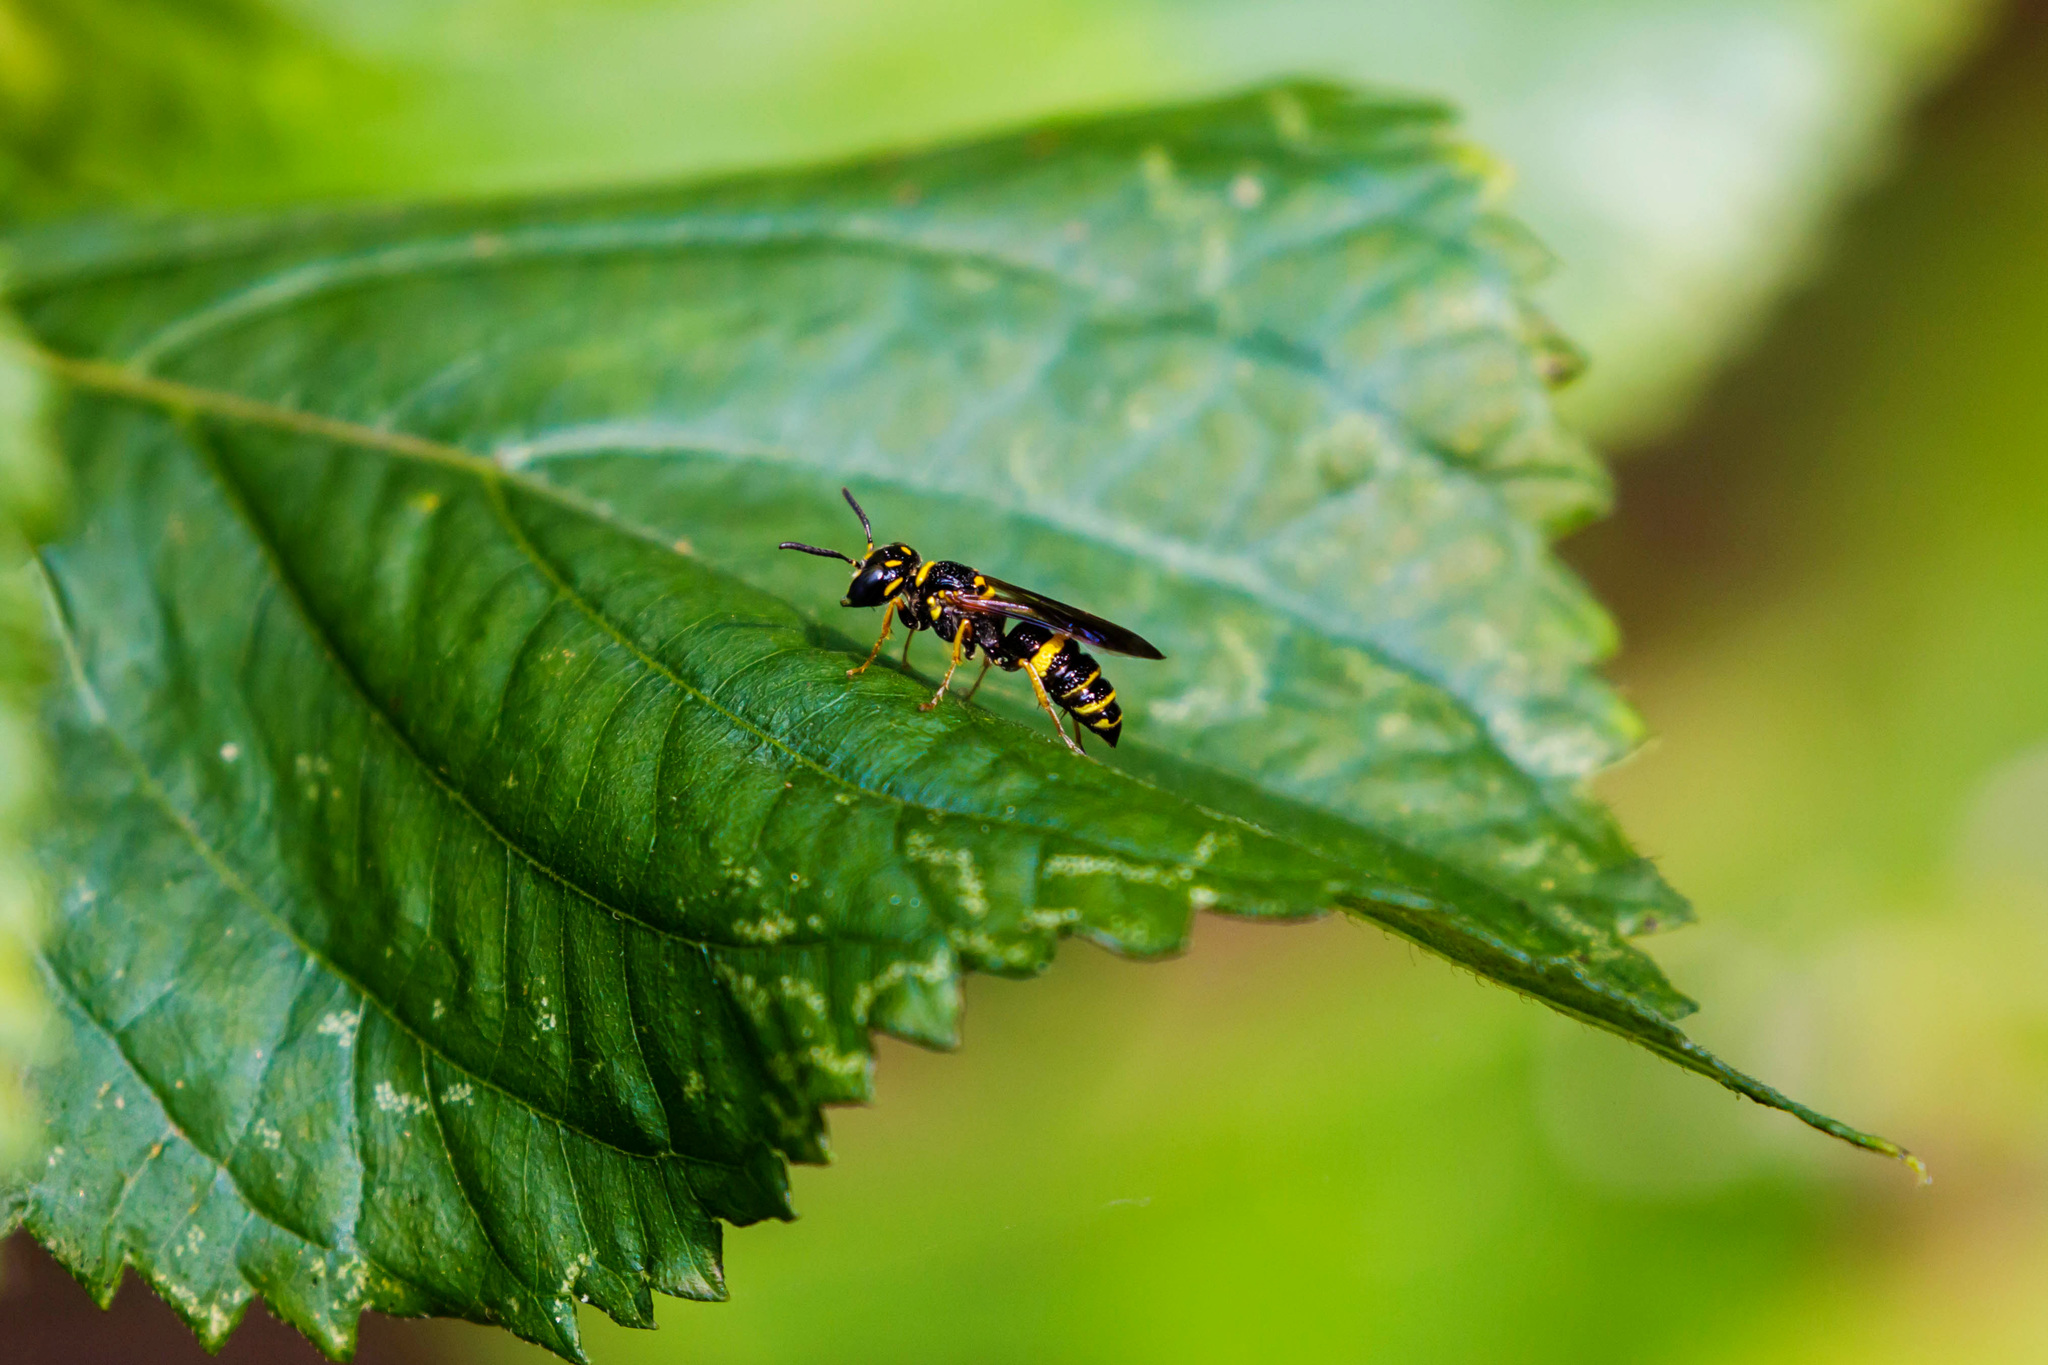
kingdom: Animalia
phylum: Arthropoda
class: Insecta
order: Hymenoptera
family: Crabronidae
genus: Philanthus
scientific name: Philanthus gibbosus
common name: Humped beewolf
